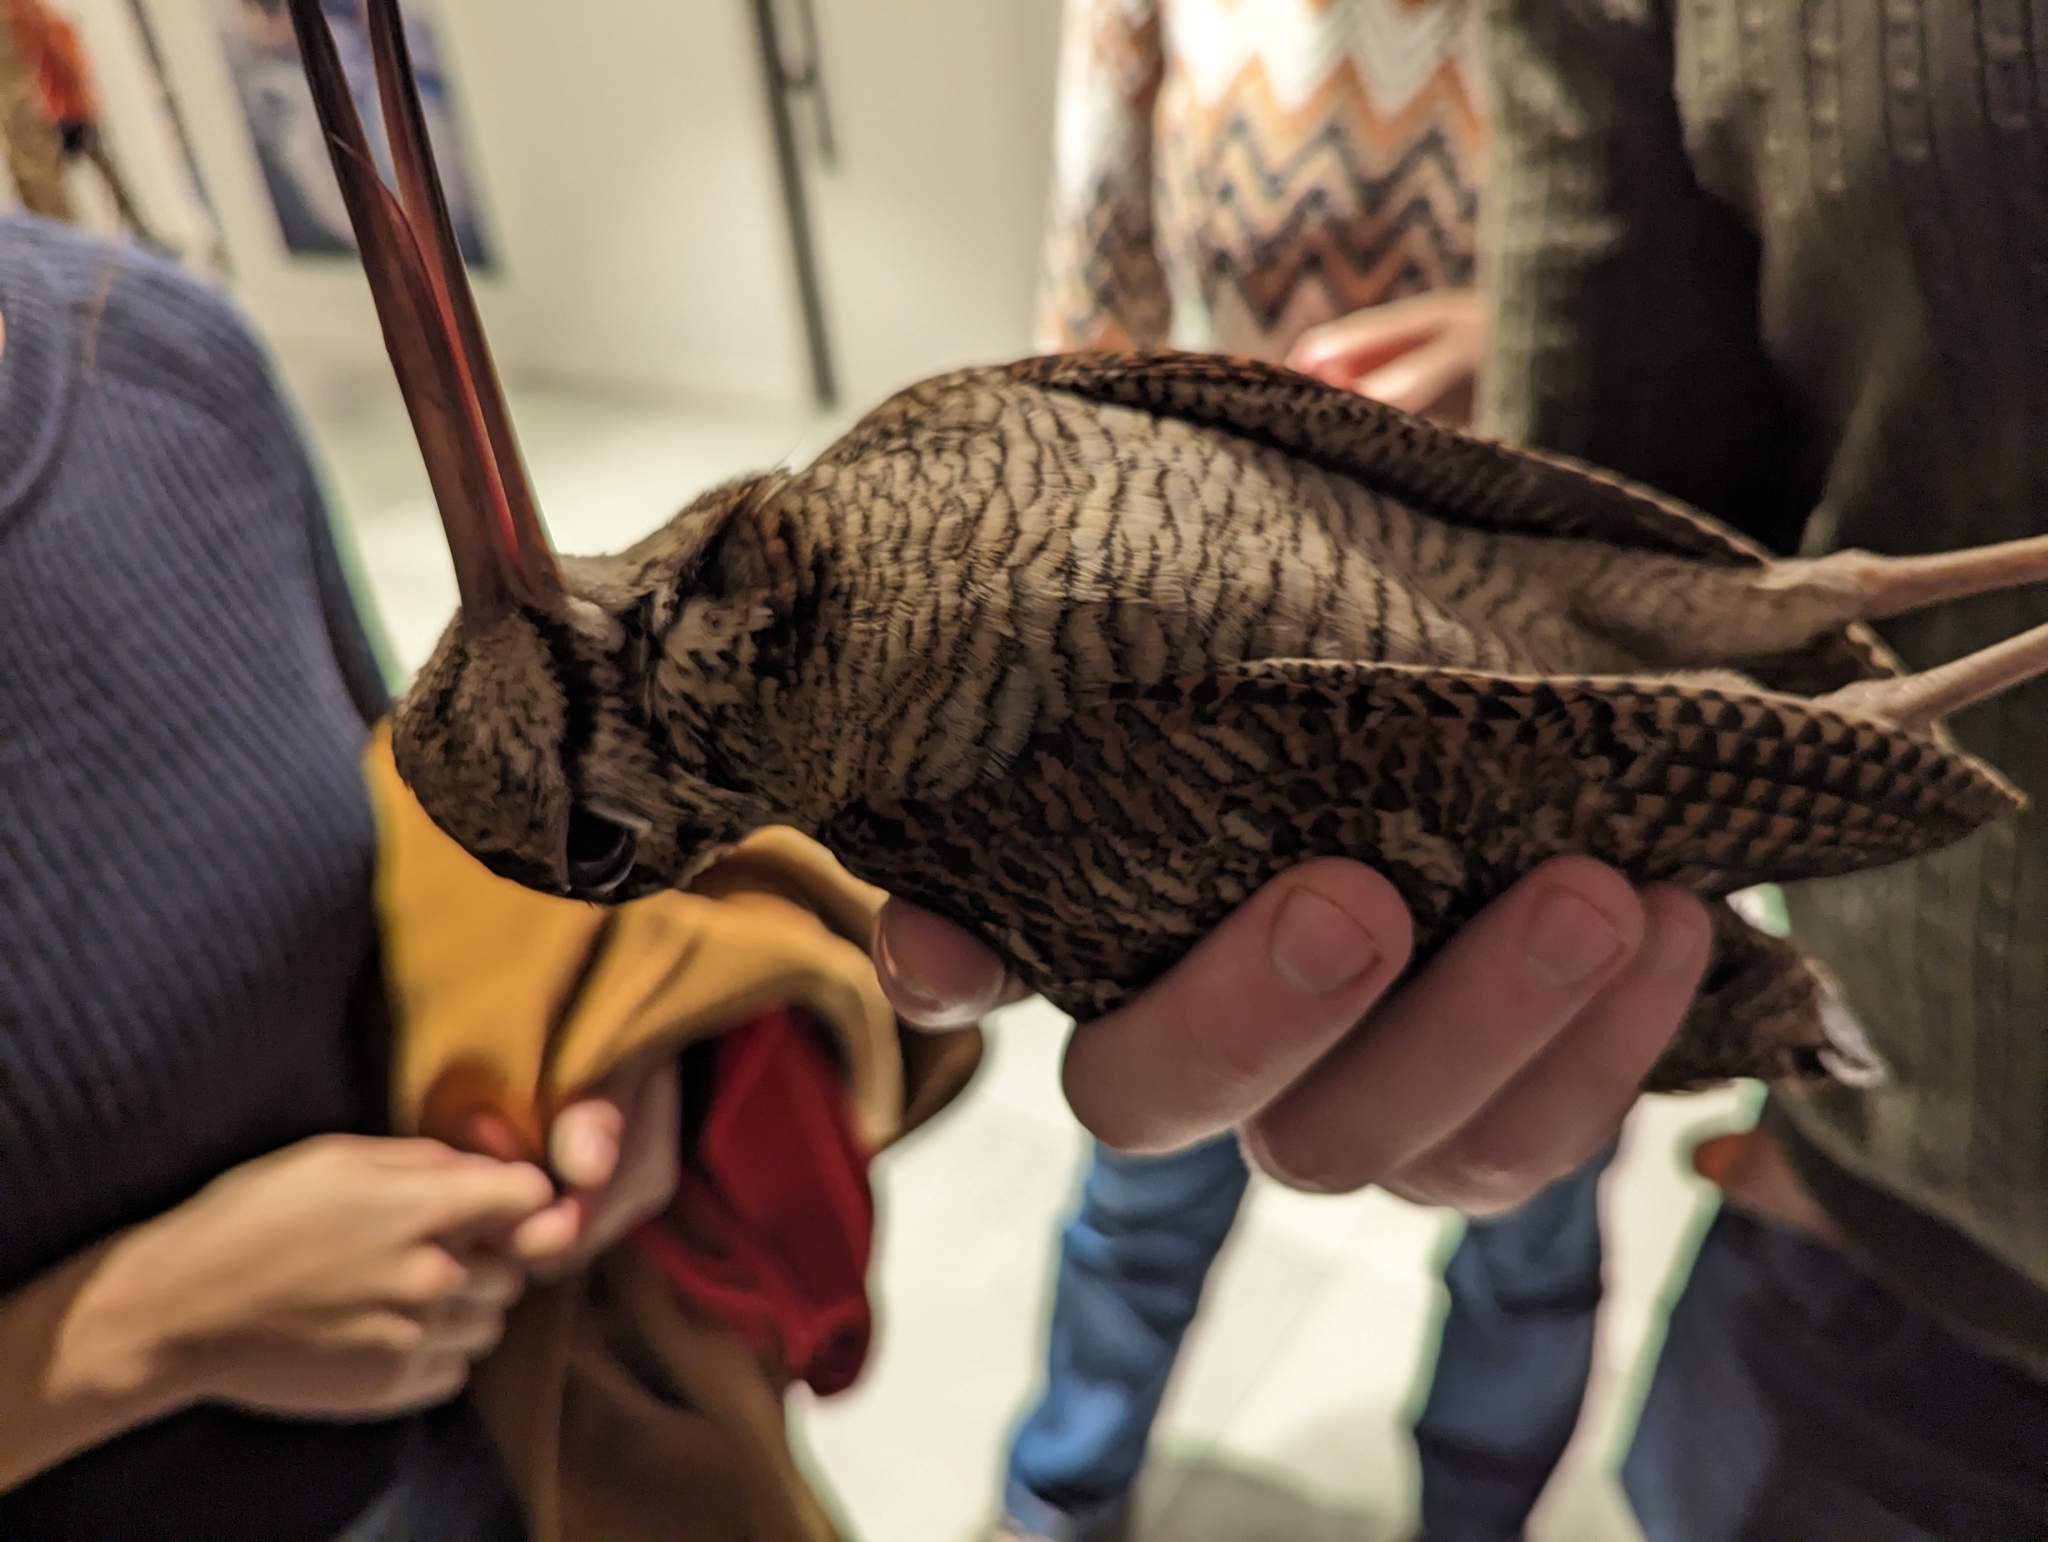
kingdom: Animalia
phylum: Chordata
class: Aves
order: Charadriiformes
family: Scolopacidae
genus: Scolopax
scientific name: Scolopax rusticola
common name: Eurasian woodcock
